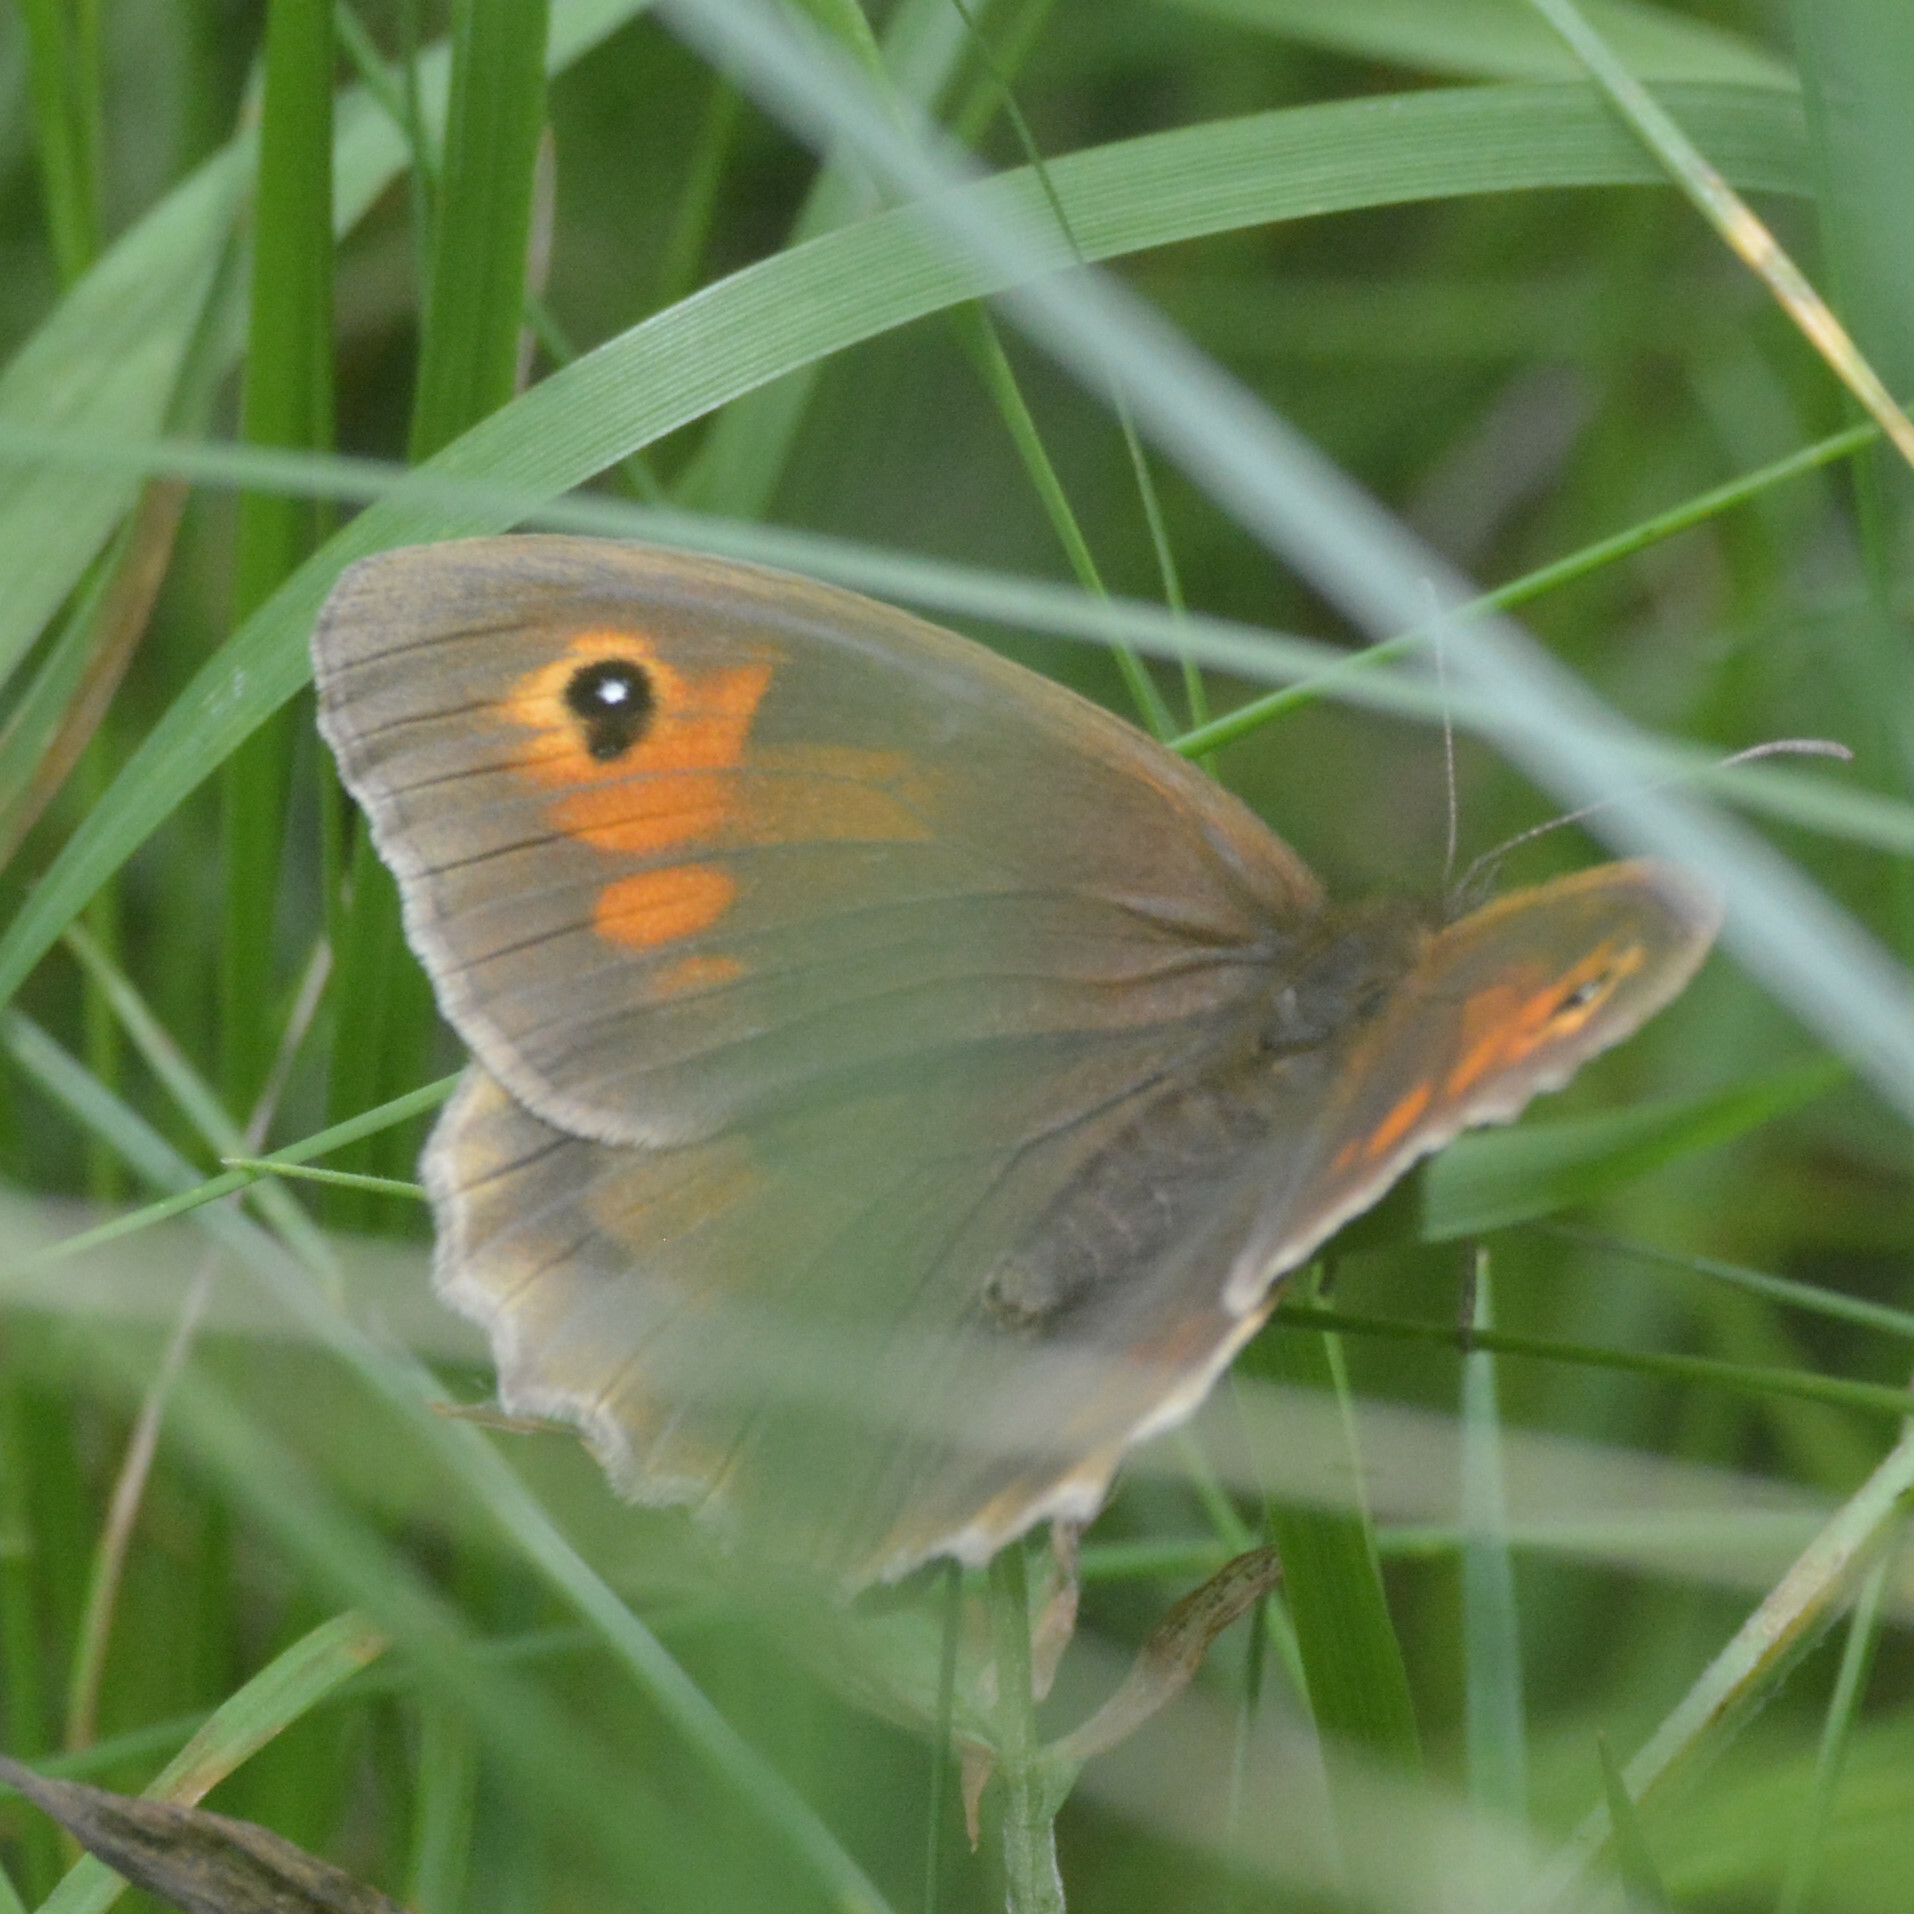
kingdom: Animalia
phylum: Arthropoda
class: Insecta
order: Lepidoptera
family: Nymphalidae
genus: Maniola
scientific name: Maniola jurtina
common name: Meadow brown
